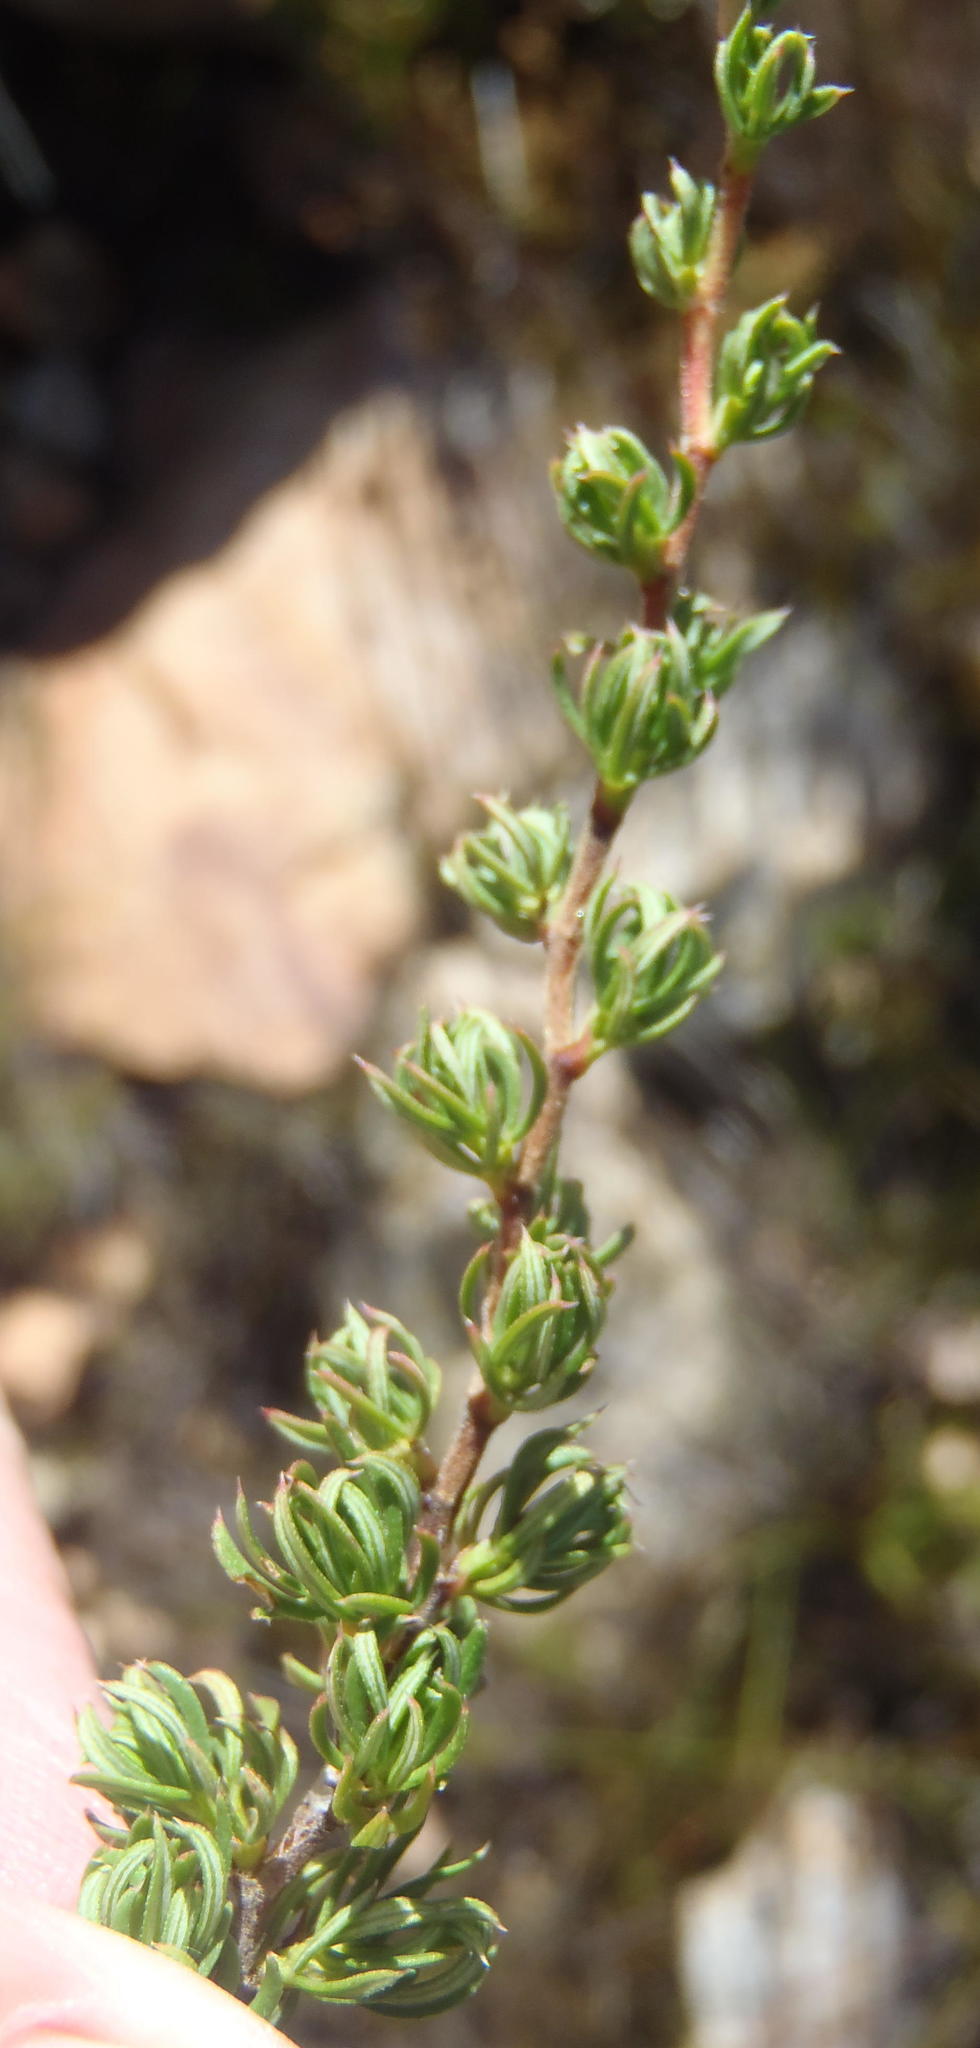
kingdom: Plantae
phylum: Tracheophyta
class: Magnoliopsida
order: Rosales
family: Rosaceae
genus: Cliffortia
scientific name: Cliffortia arcuata
